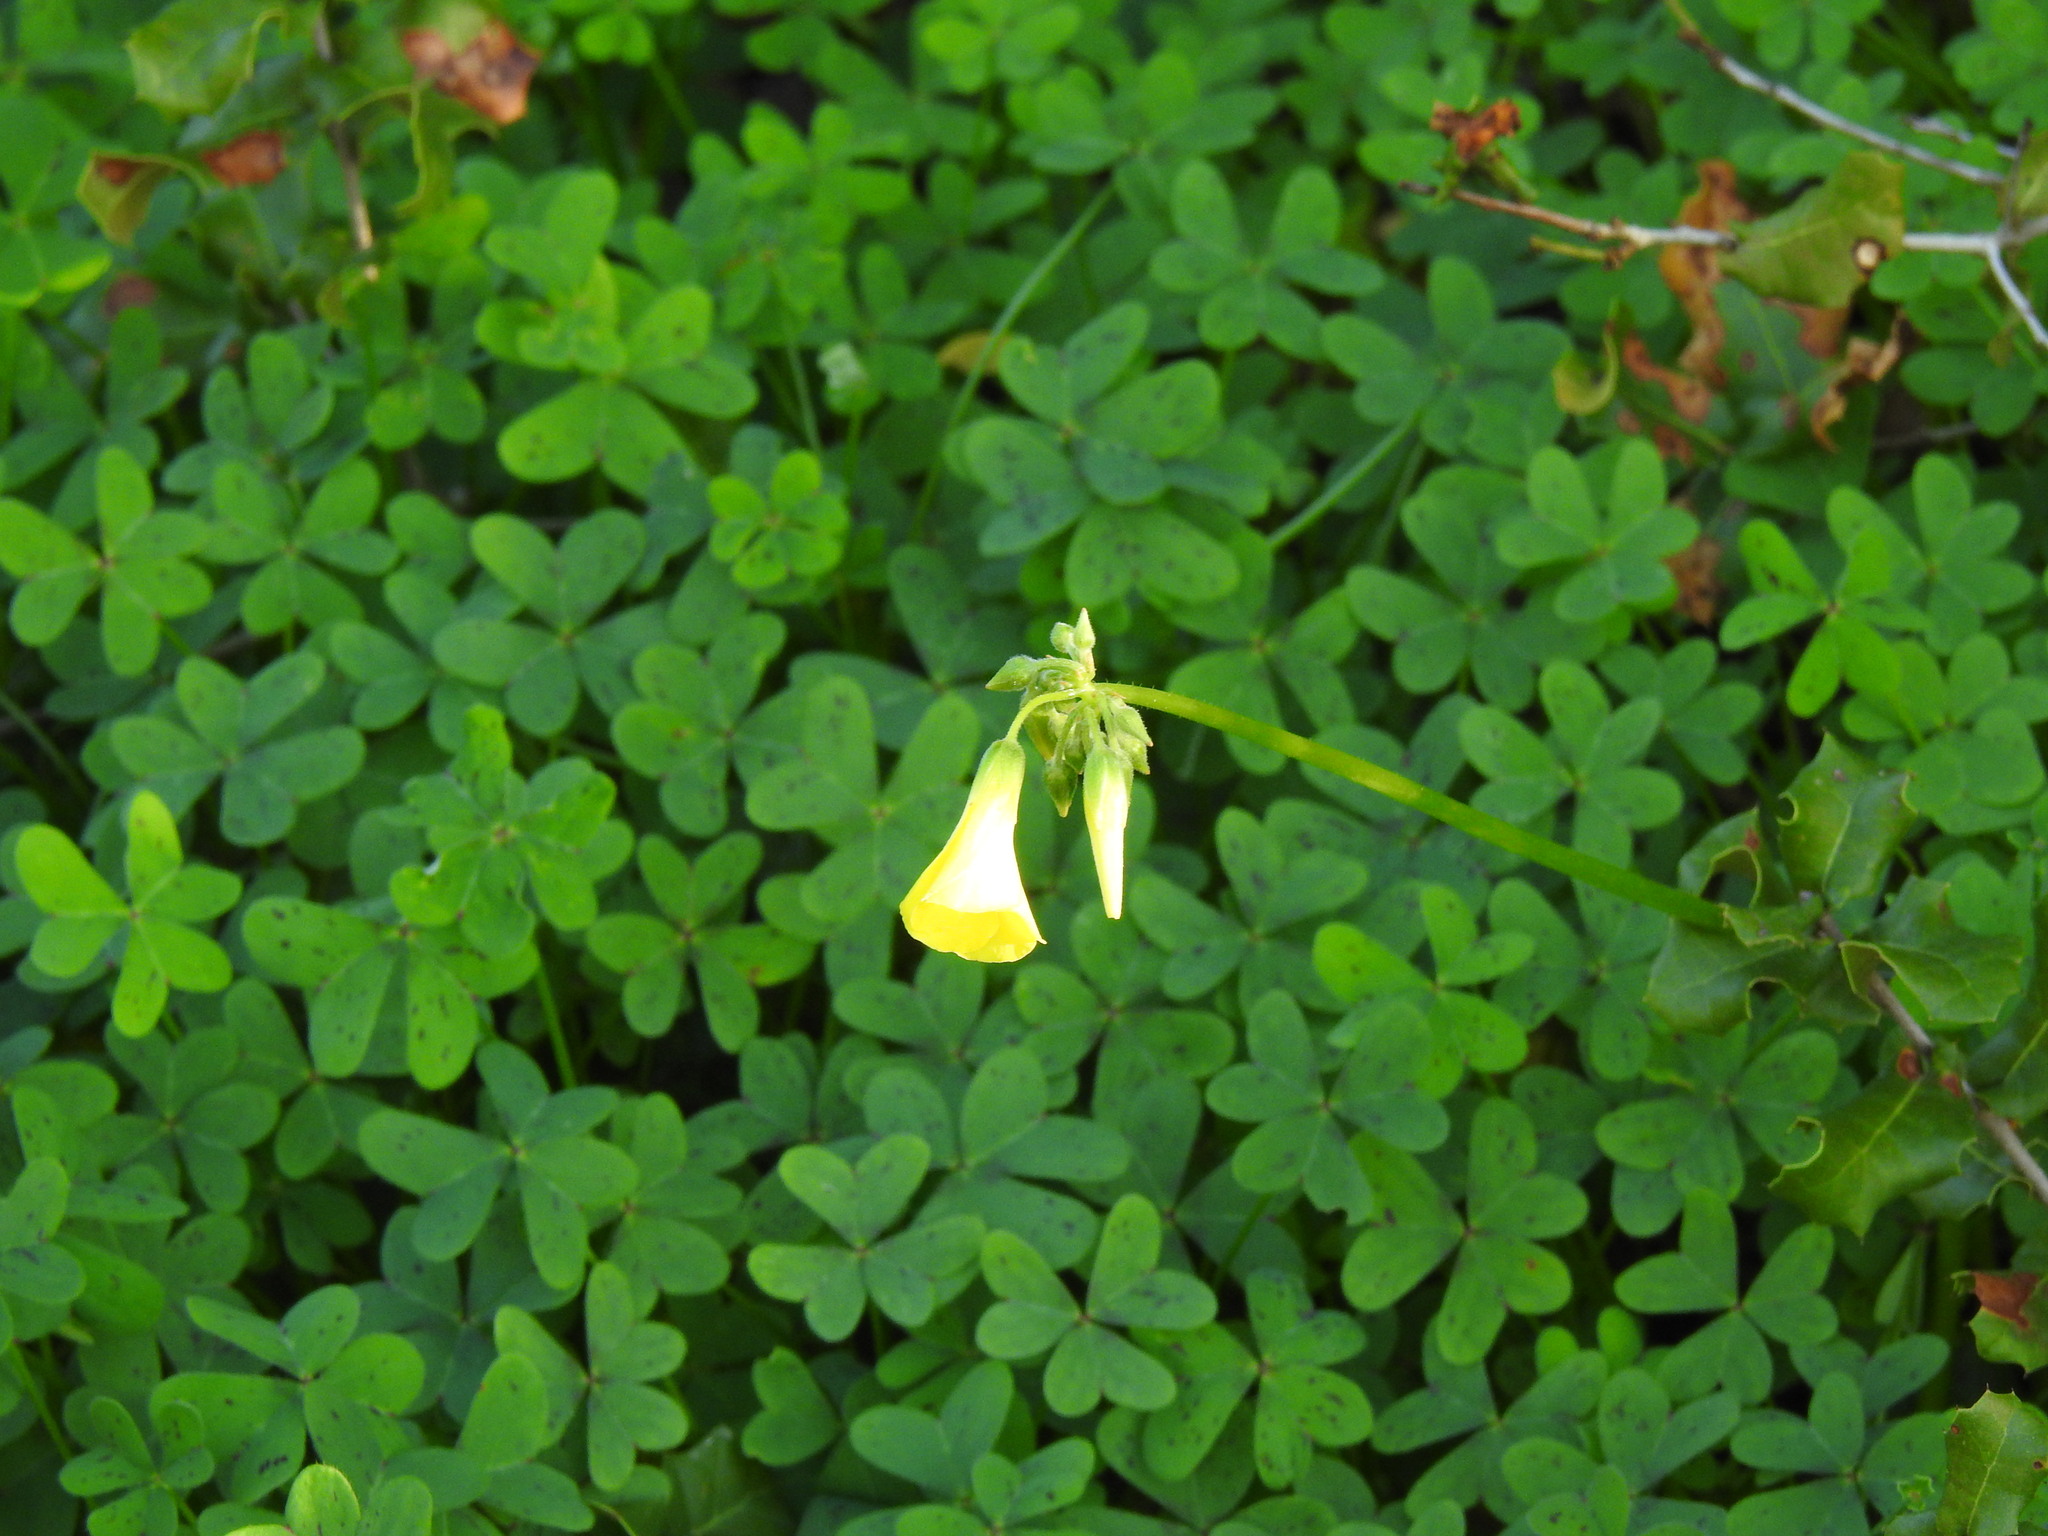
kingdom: Plantae
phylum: Tracheophyta
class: Magnoliopsida
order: Oxalidales
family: Oxalidaceae
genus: Oxalis
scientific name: Oxalis pes-caprae
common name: Bermuda-buttercup
